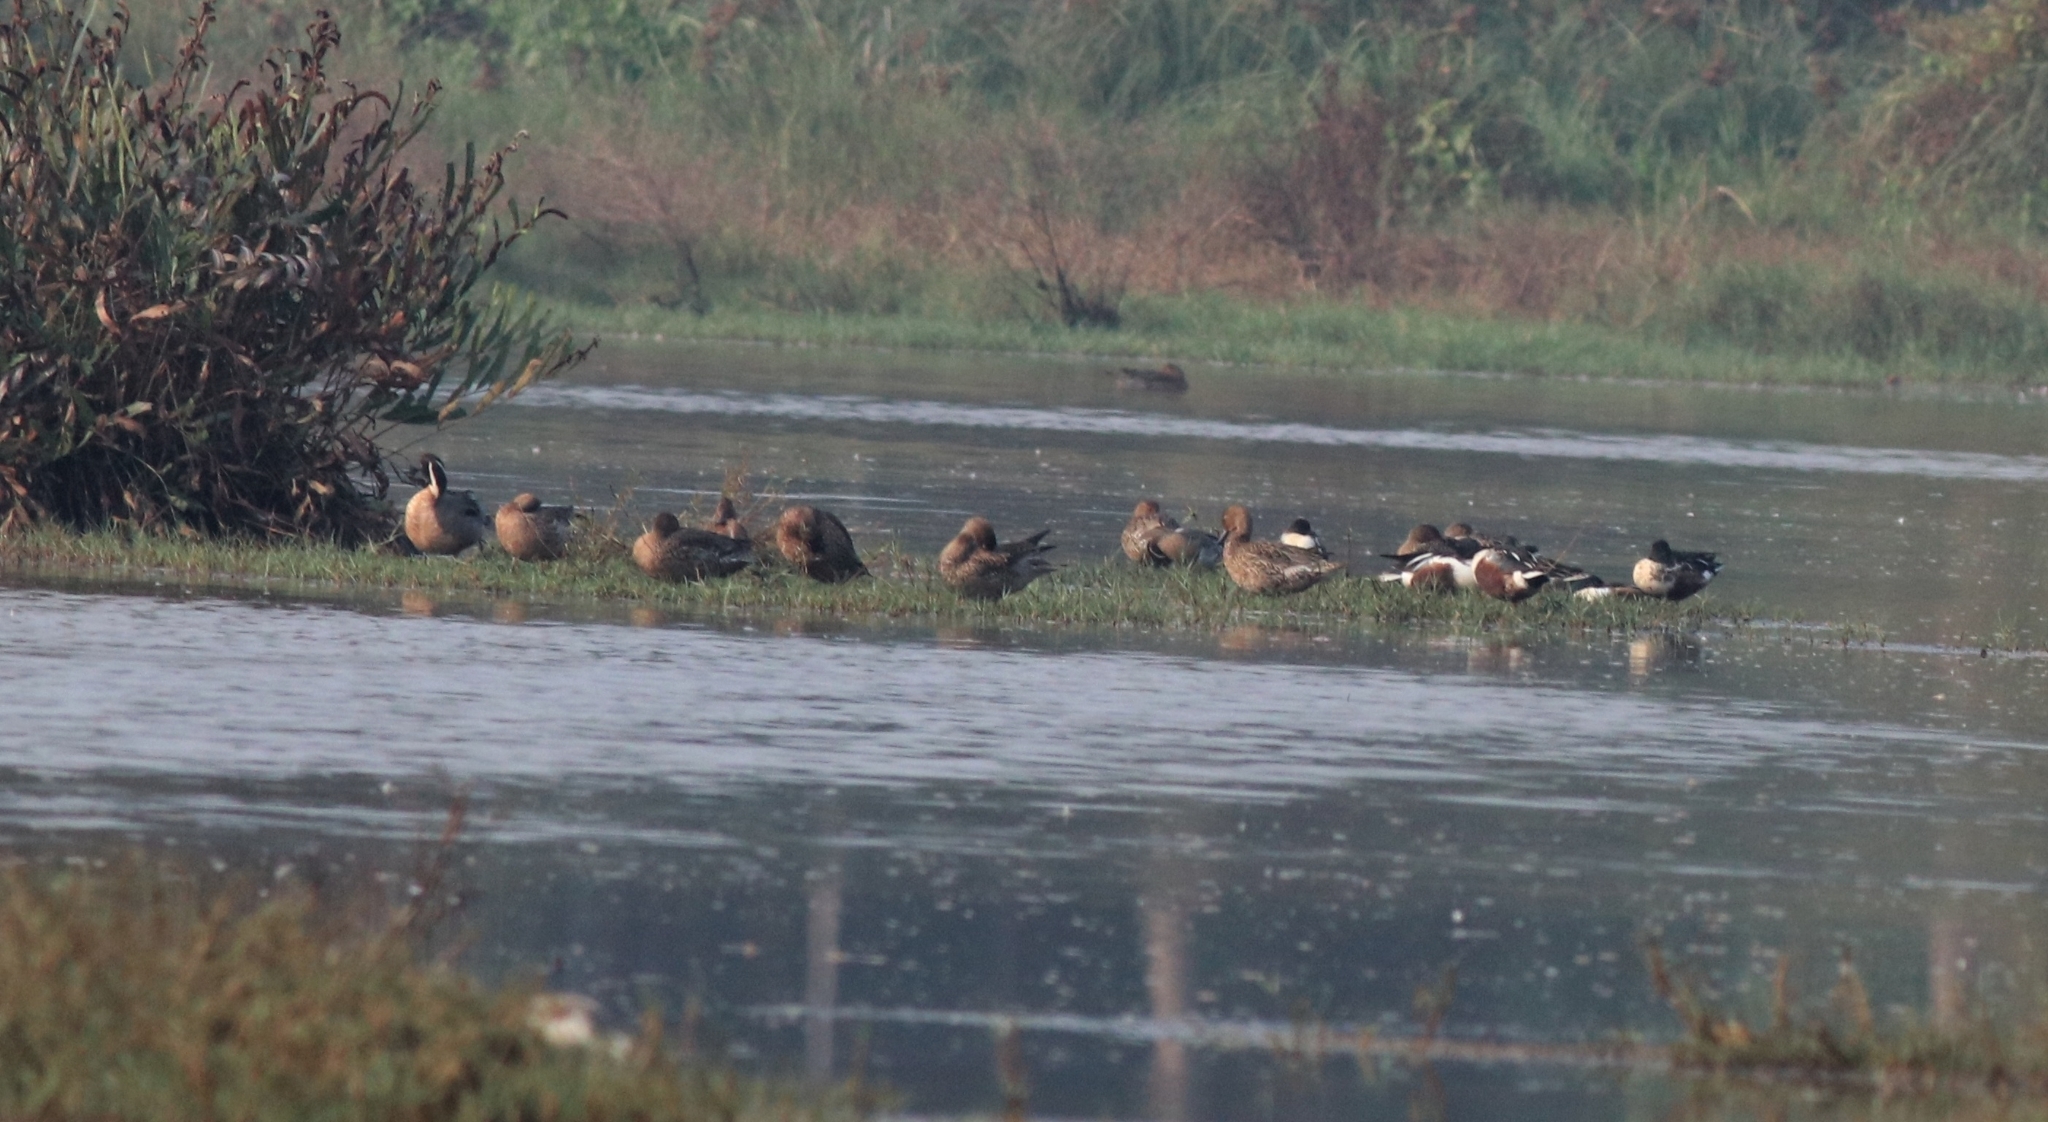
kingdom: Animalia
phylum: Chordata
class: Aves
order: Anseriformes
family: Anatidae
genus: Spatula
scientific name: Spatula clypeata
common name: Northern shoveler
